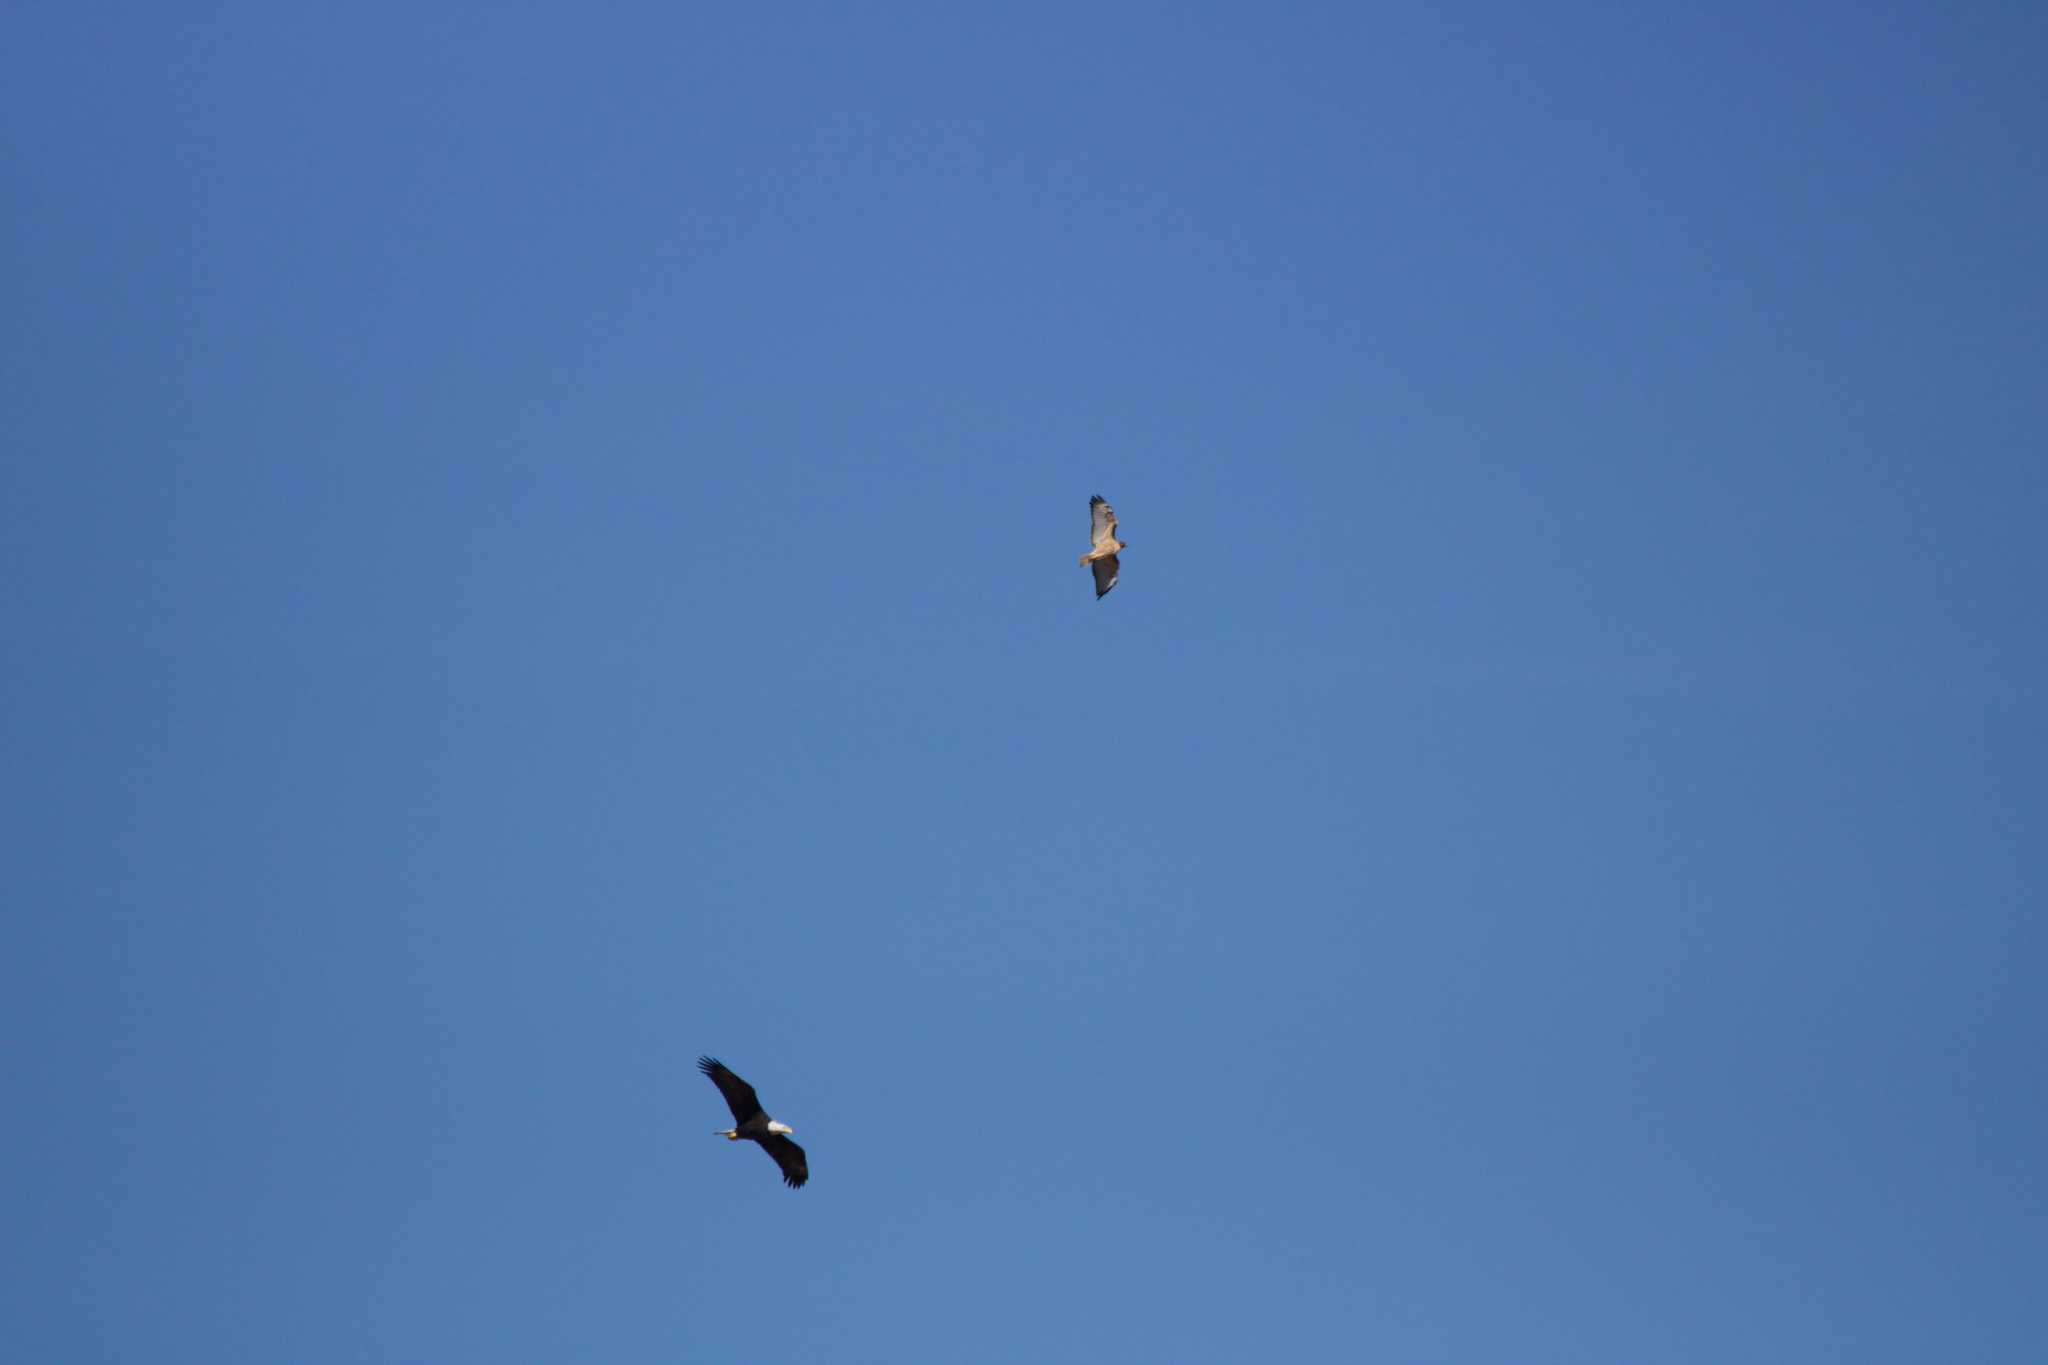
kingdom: Animalia
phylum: Chordata
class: Aves
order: Accipitriformes
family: Accipitridae
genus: Haliaeetus
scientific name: Haliaeetus leucocephalus
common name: Bald eagle
